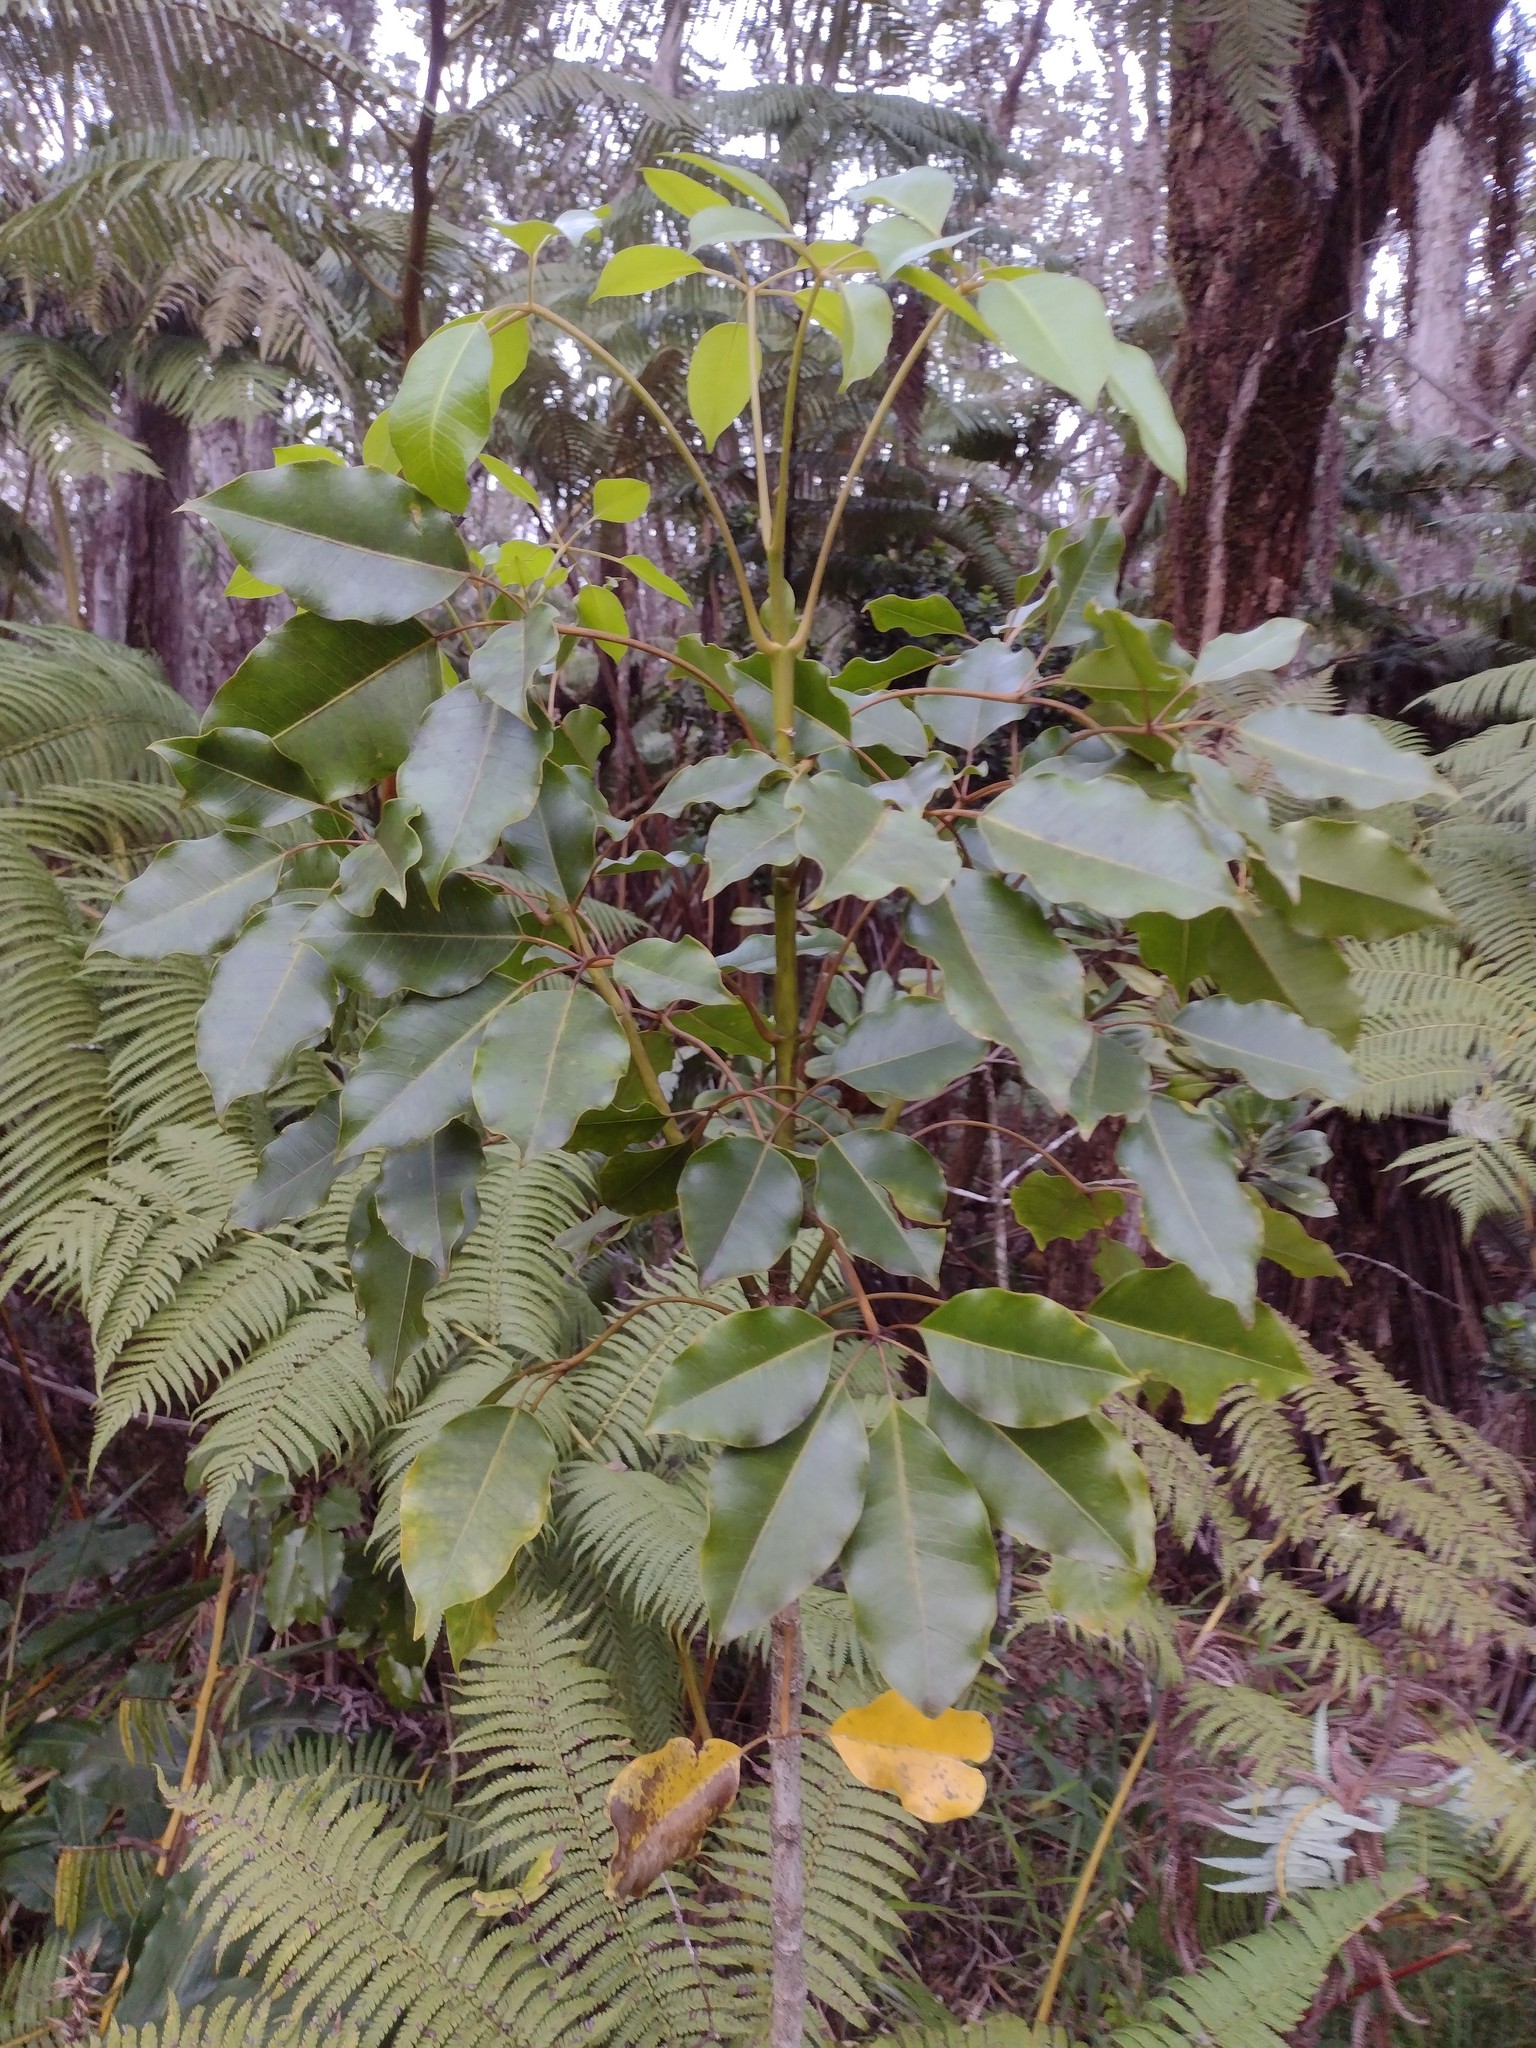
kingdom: Plantae
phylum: Tracheophyta
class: Magnoliopsida
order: Apiales
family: Araliaceae
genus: Cheirodendron
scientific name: Cheirodendron trigynum
